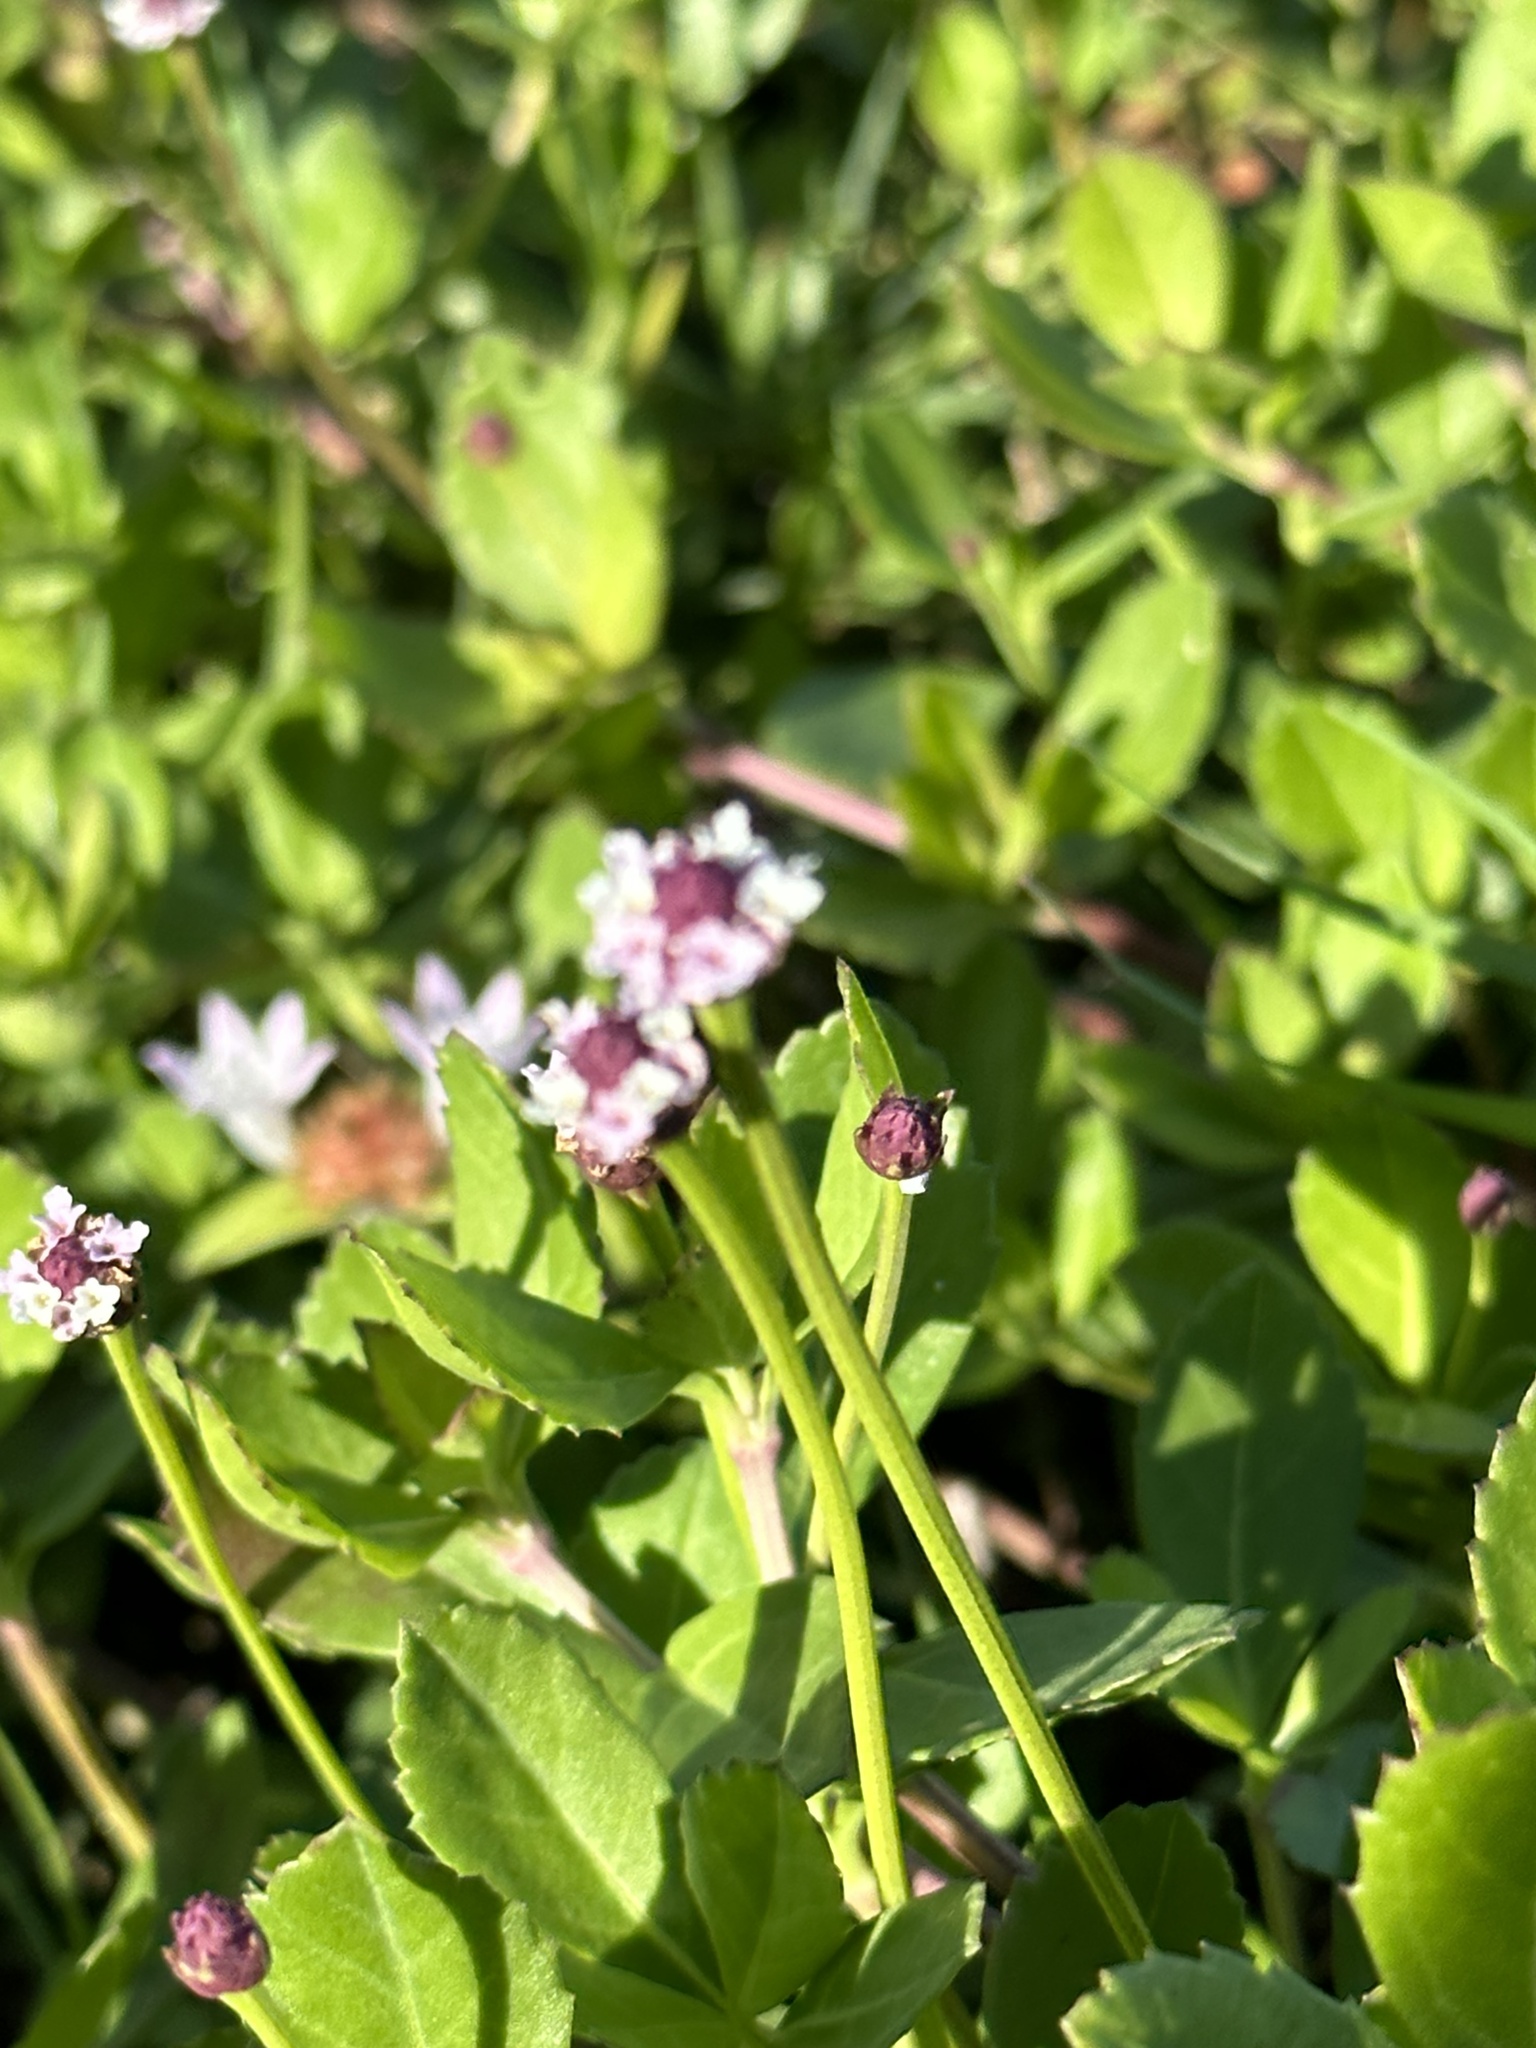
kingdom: Plantae
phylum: Tracheophyta
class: Magnoliopsida
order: Lamiales
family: Verbenaceae
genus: Phyla
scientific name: Phyla nodiflora
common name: Frogfruit
